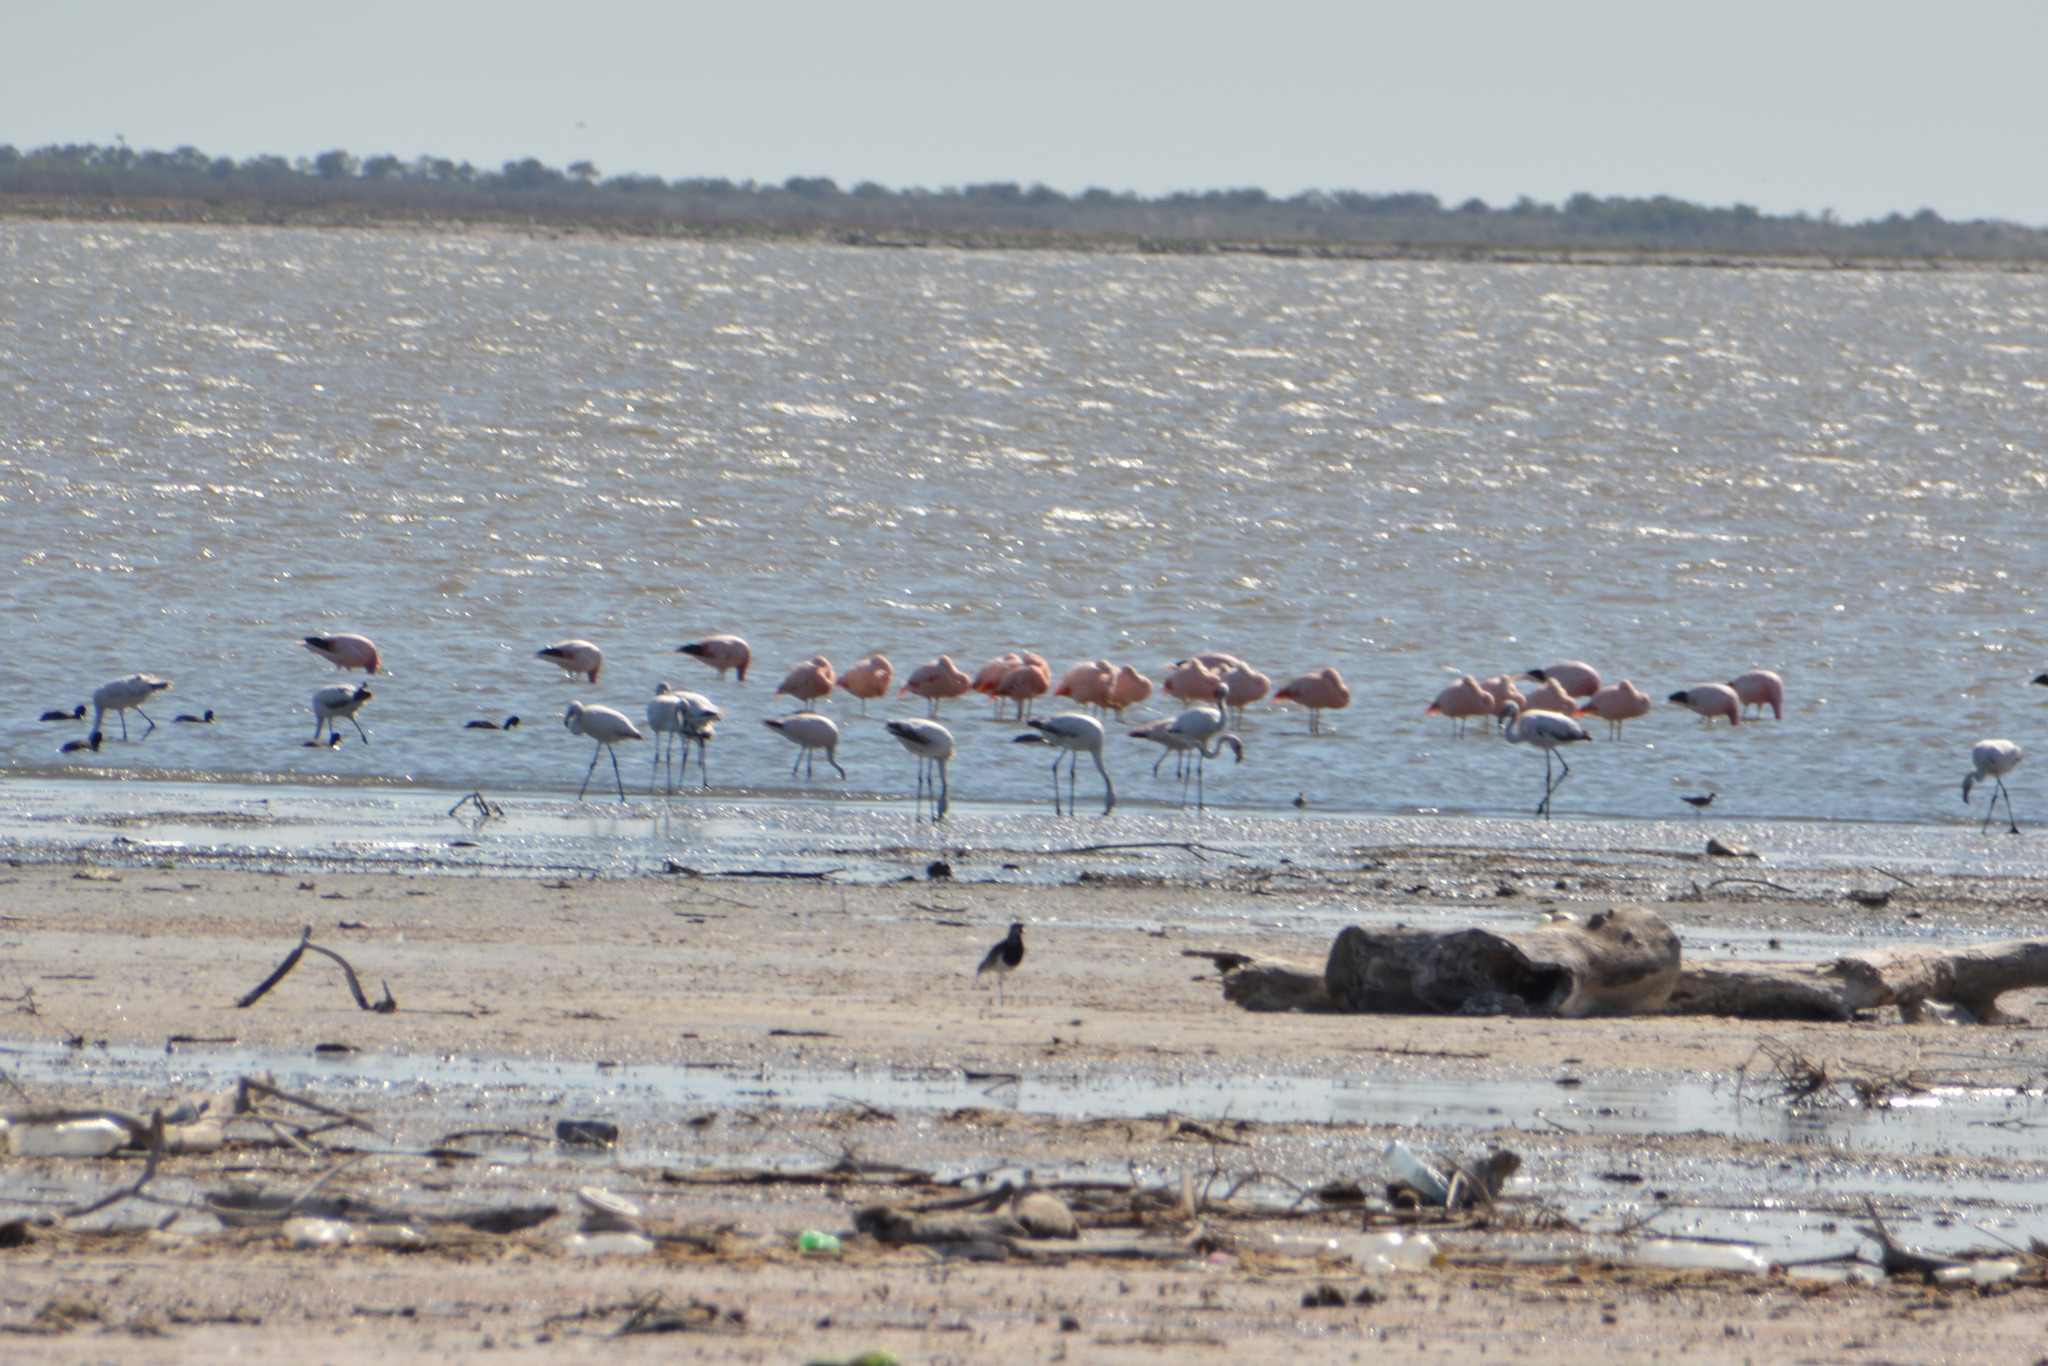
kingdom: Animalia
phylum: Chordata
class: Aves
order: Phoenicopteriformes
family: Phoenicopteridae
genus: Phoenicopterus
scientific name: Phoenicopterus chilensis
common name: Chilean flamingo
